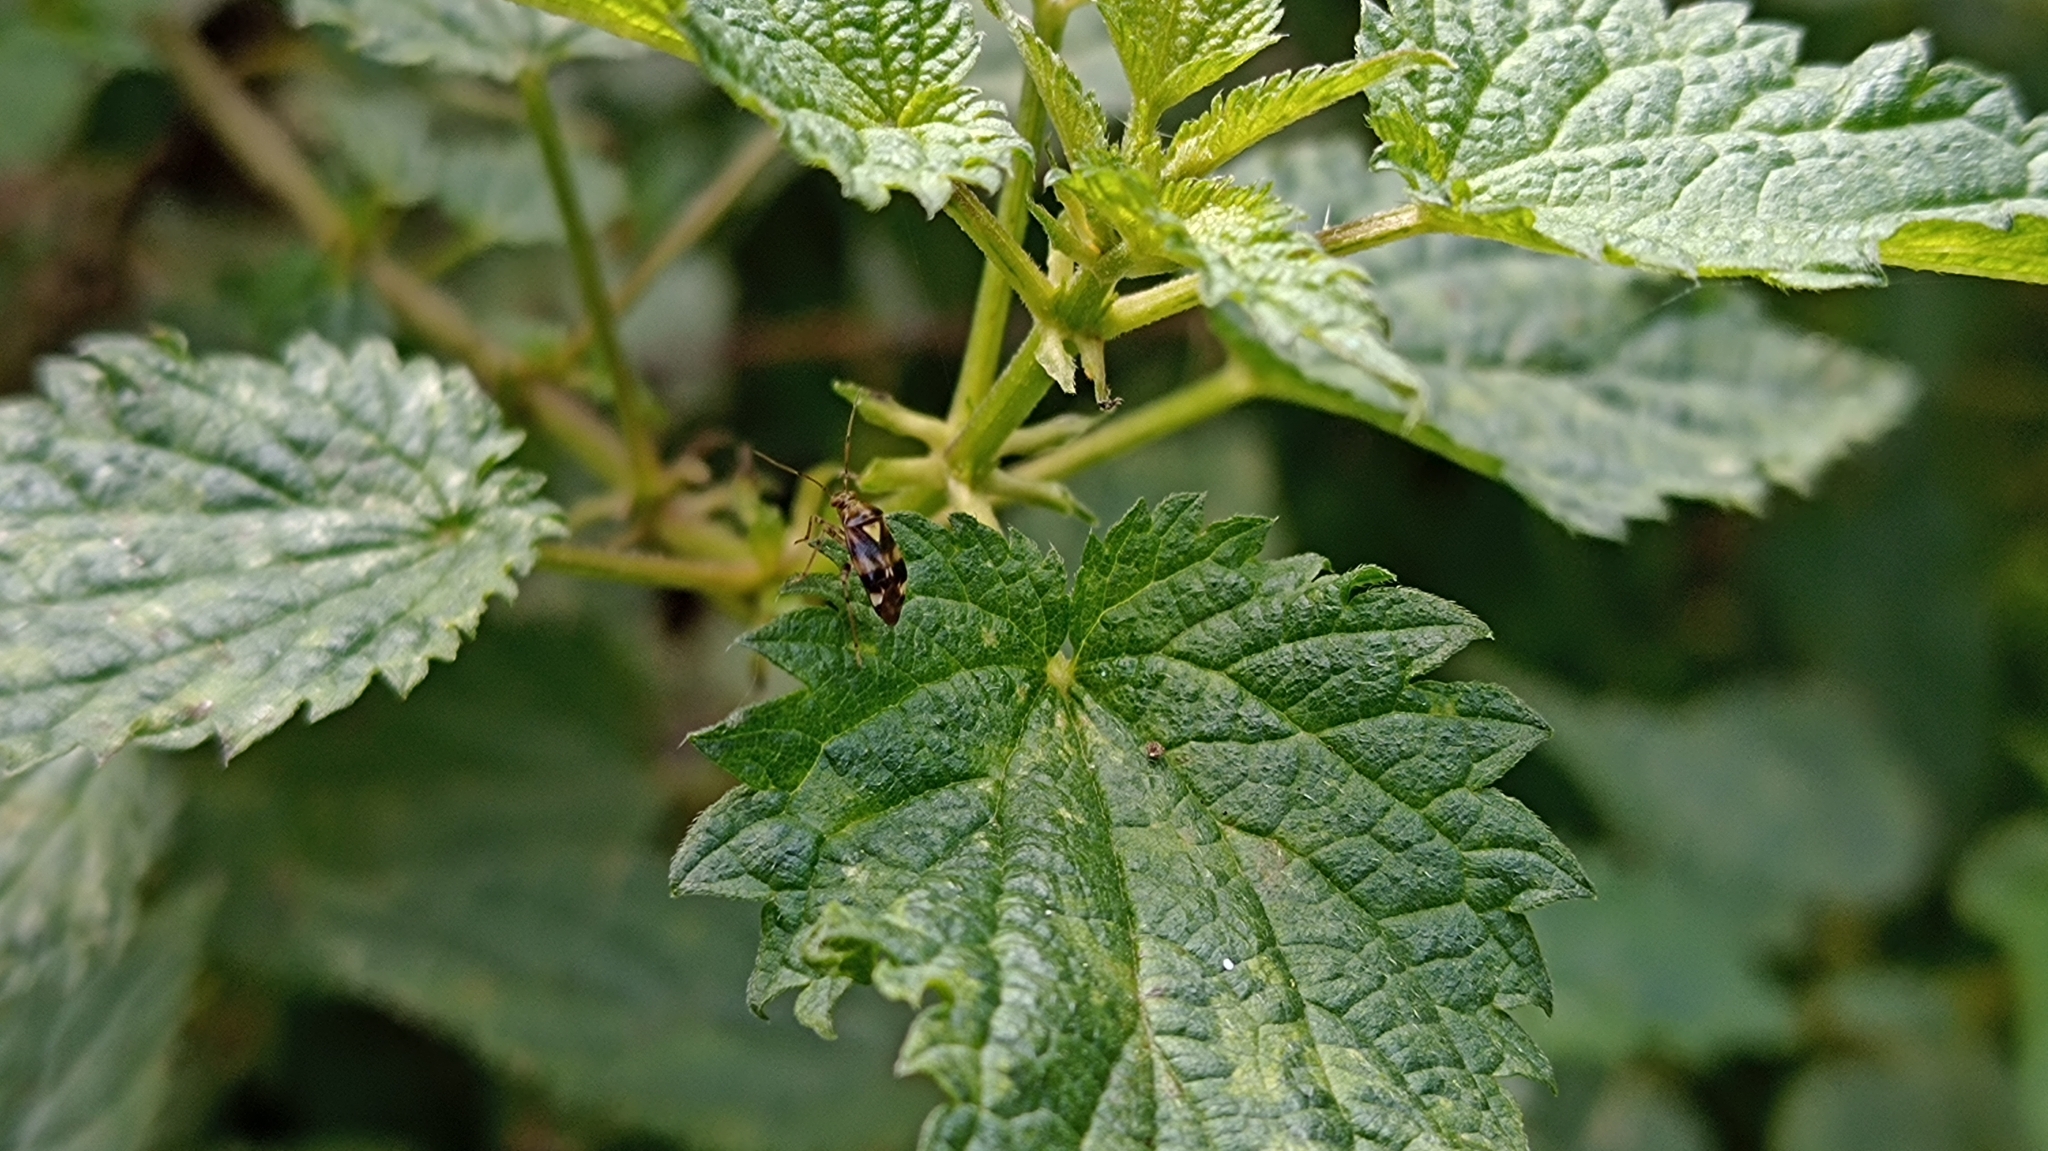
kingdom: Animalia
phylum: Arthropoda
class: Insecta
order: Hemiptera
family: Miridae
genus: Liocoris
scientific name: Liocoris tripustulatus
